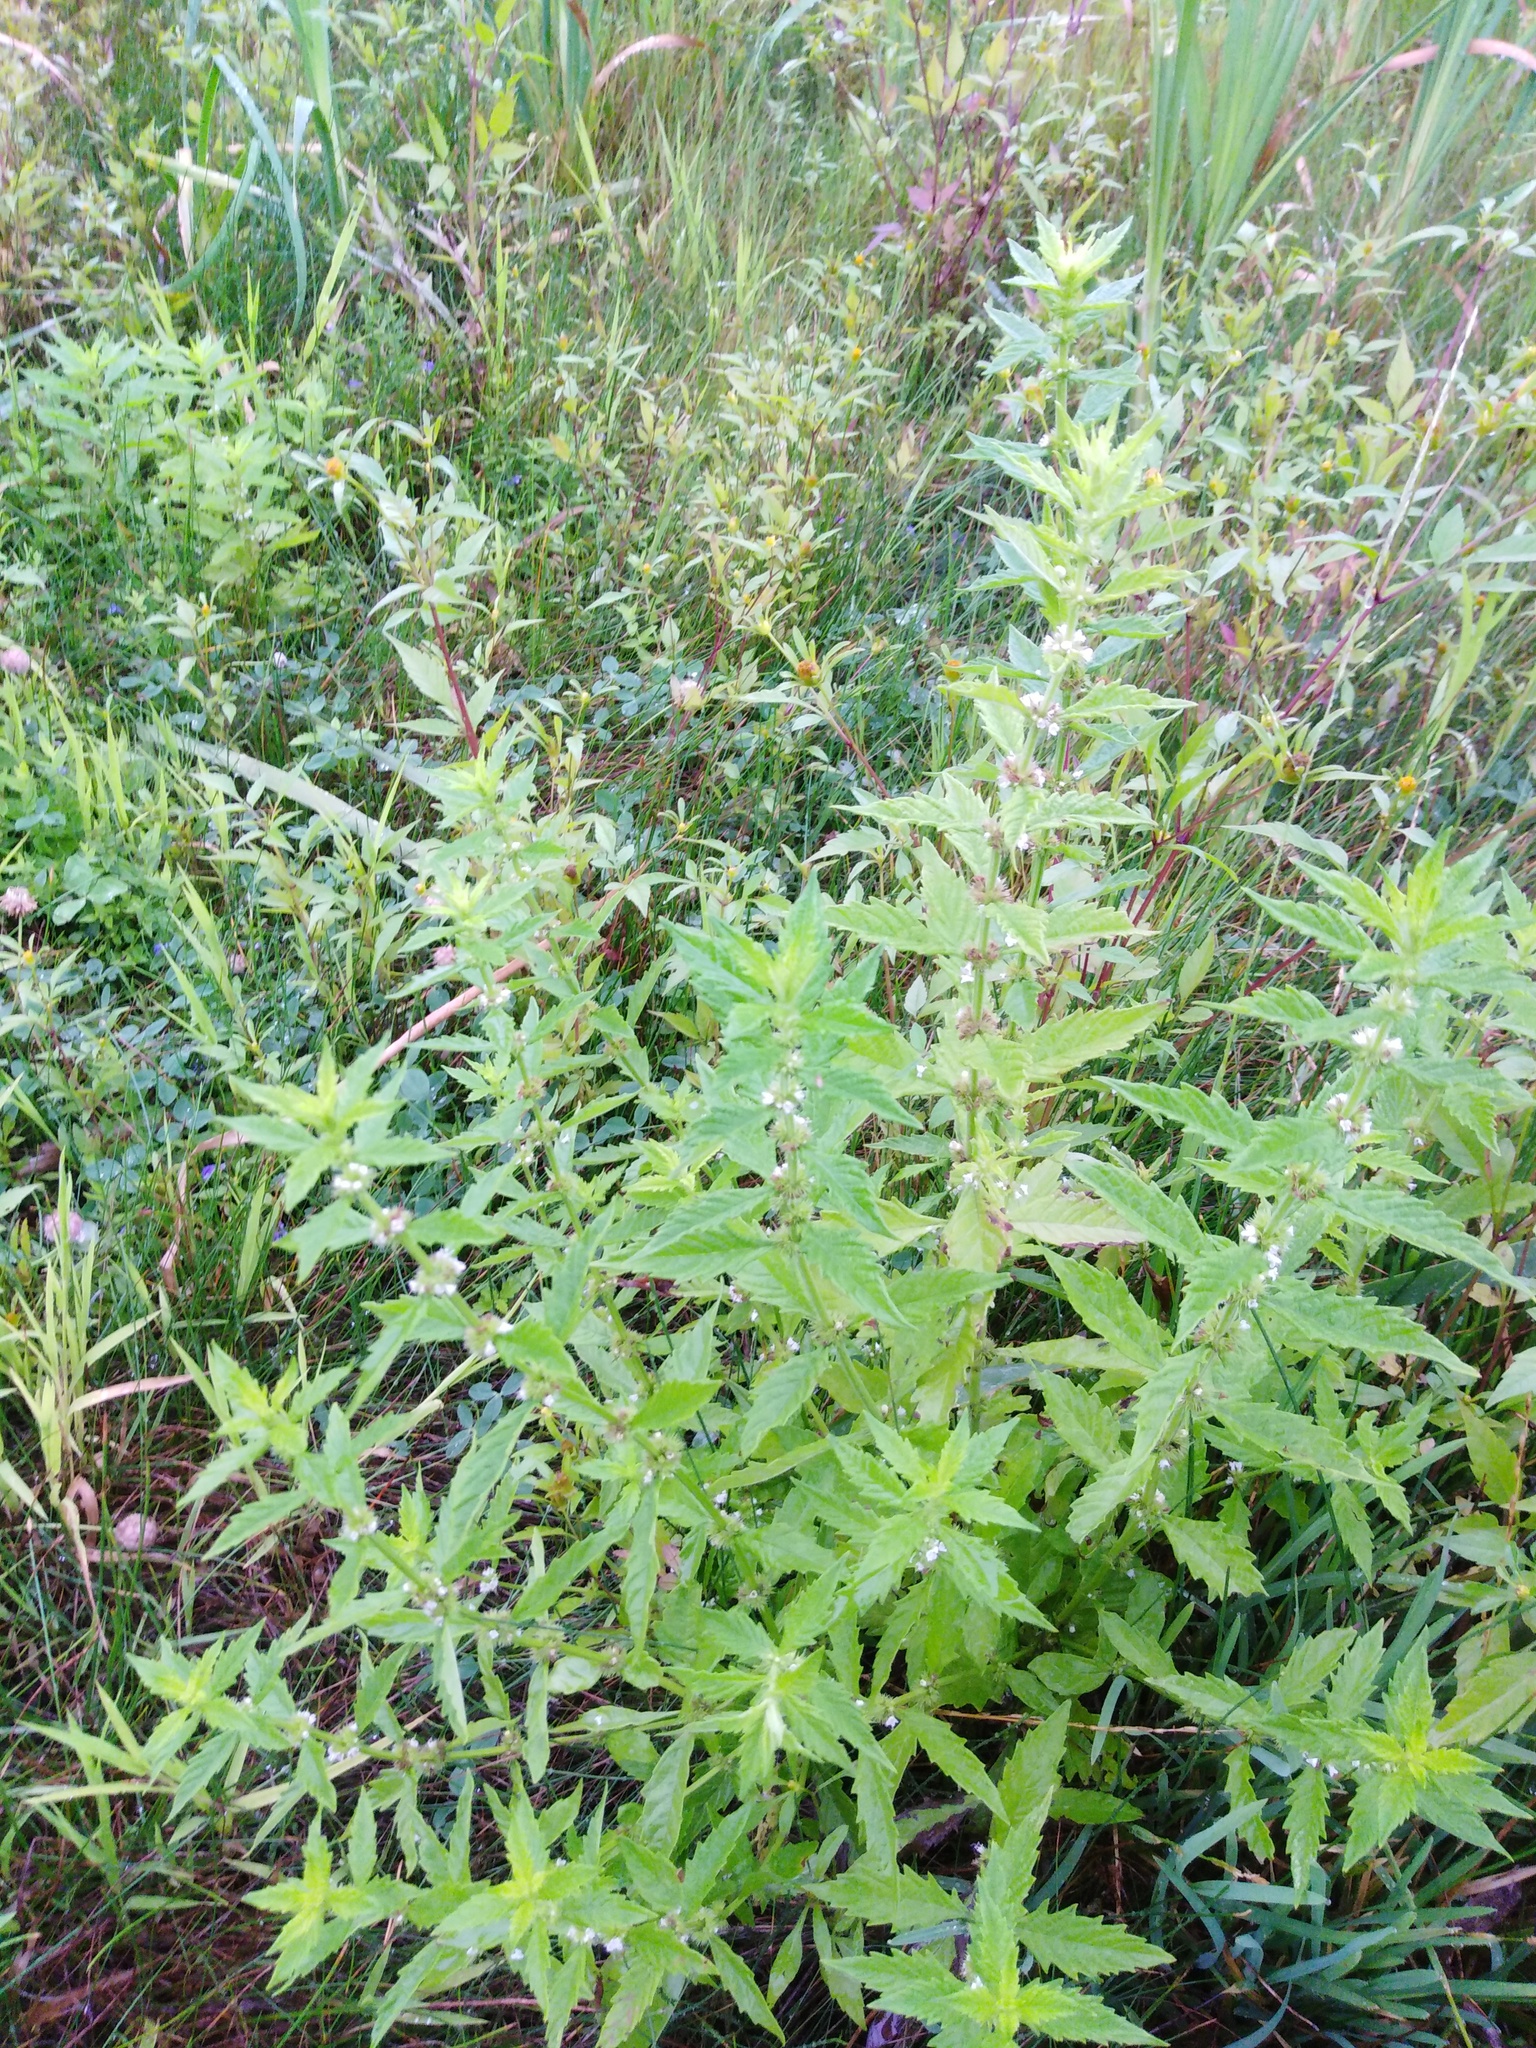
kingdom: Plantae
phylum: Tracheophyta
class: Magnoliopsida
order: Lamiales
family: Lamiaceae
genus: Lycopus
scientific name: Lycopus europaeus
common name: European bugleweed
